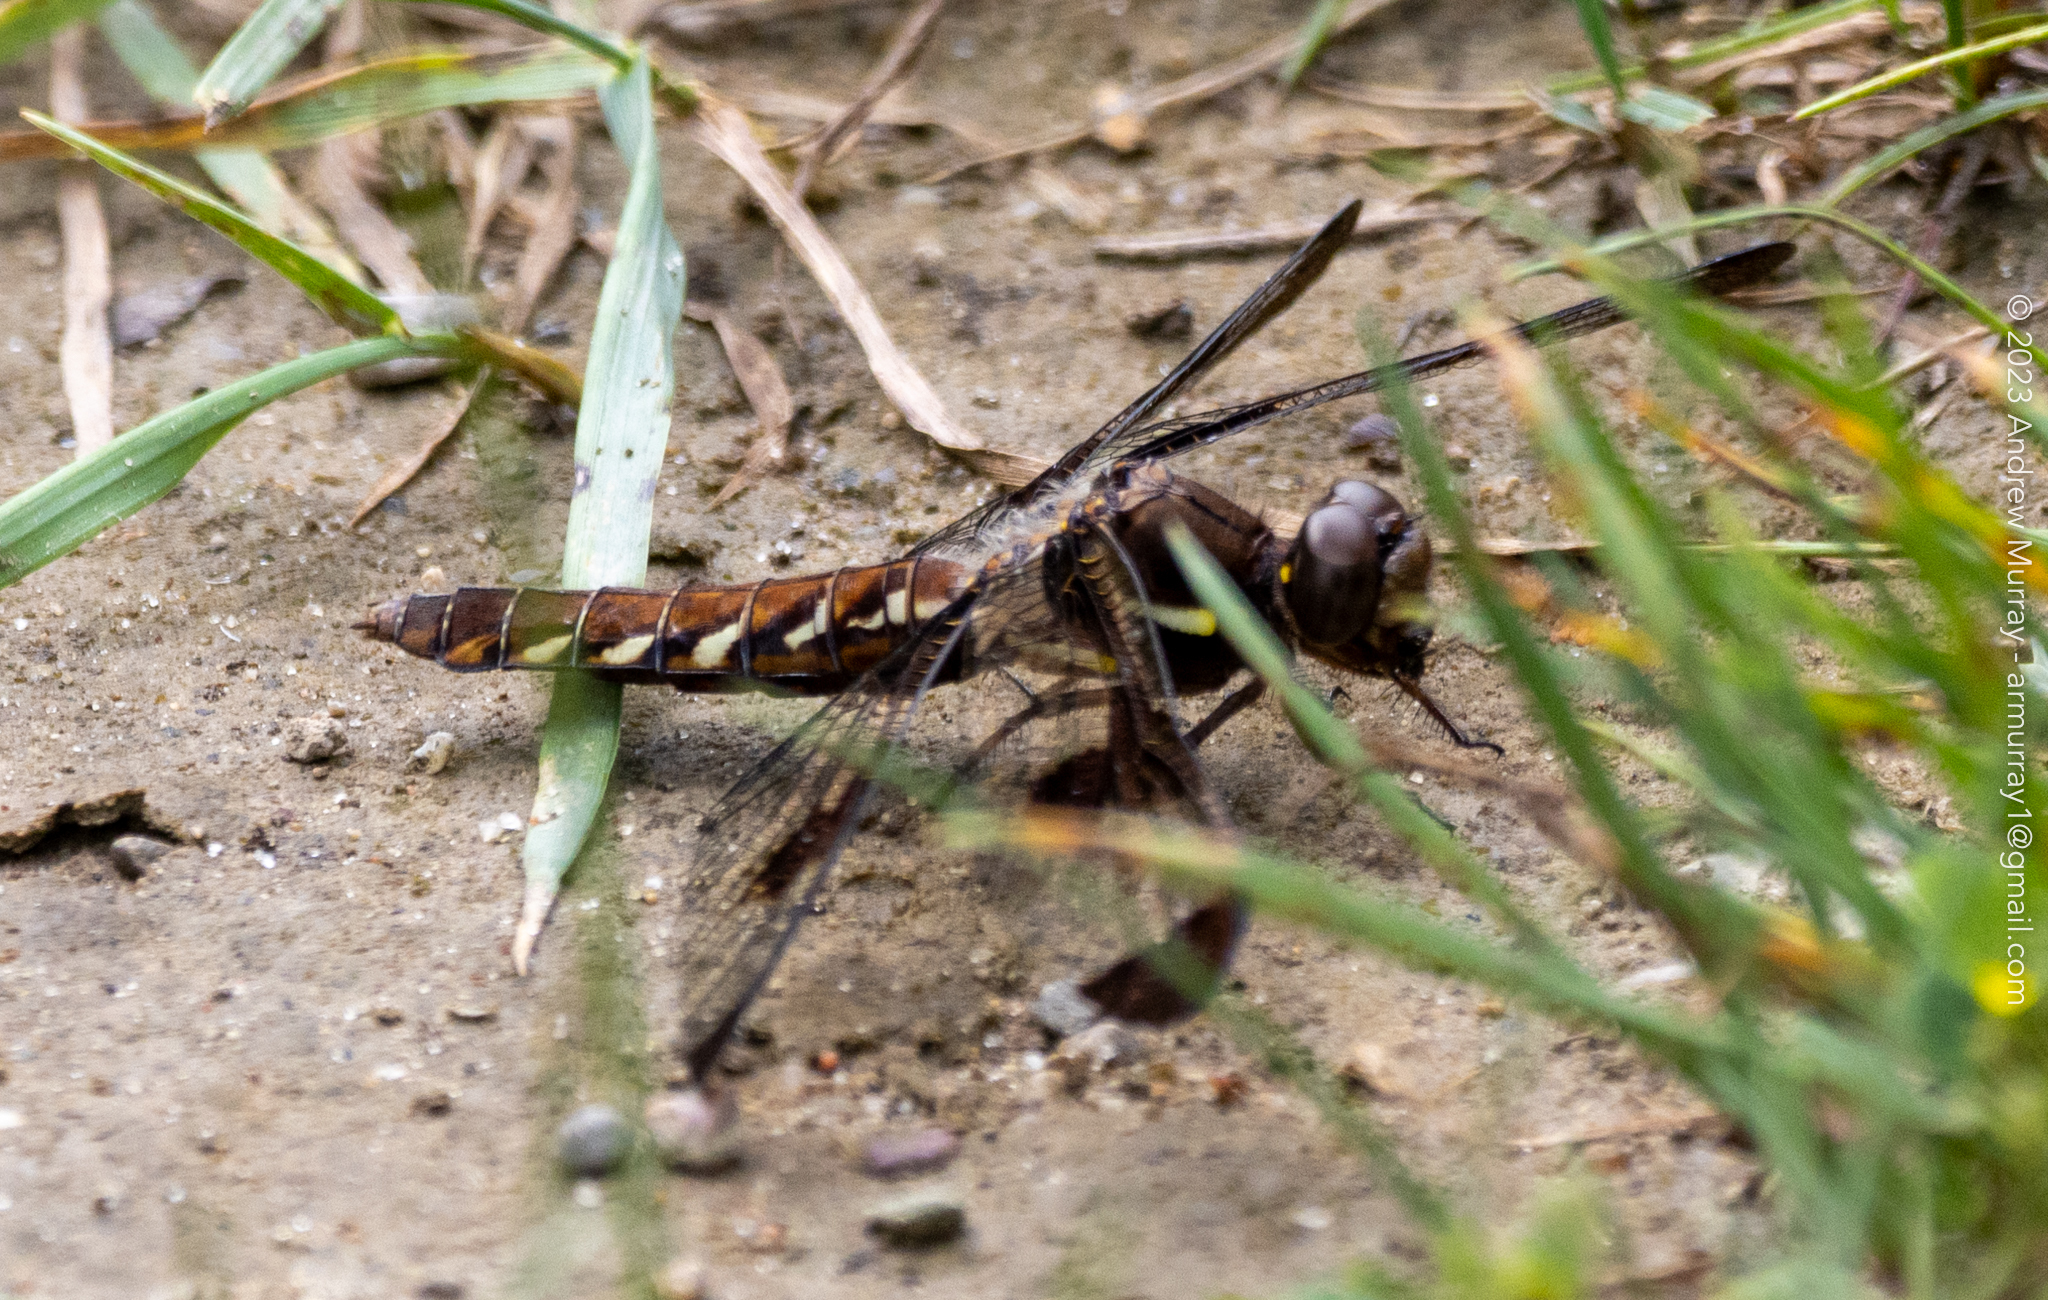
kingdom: Animalia
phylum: Arthropoda
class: Insecta
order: Odonata
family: Libellulidae
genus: Plathemis
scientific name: Plathemis lydia
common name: Common whitetail
